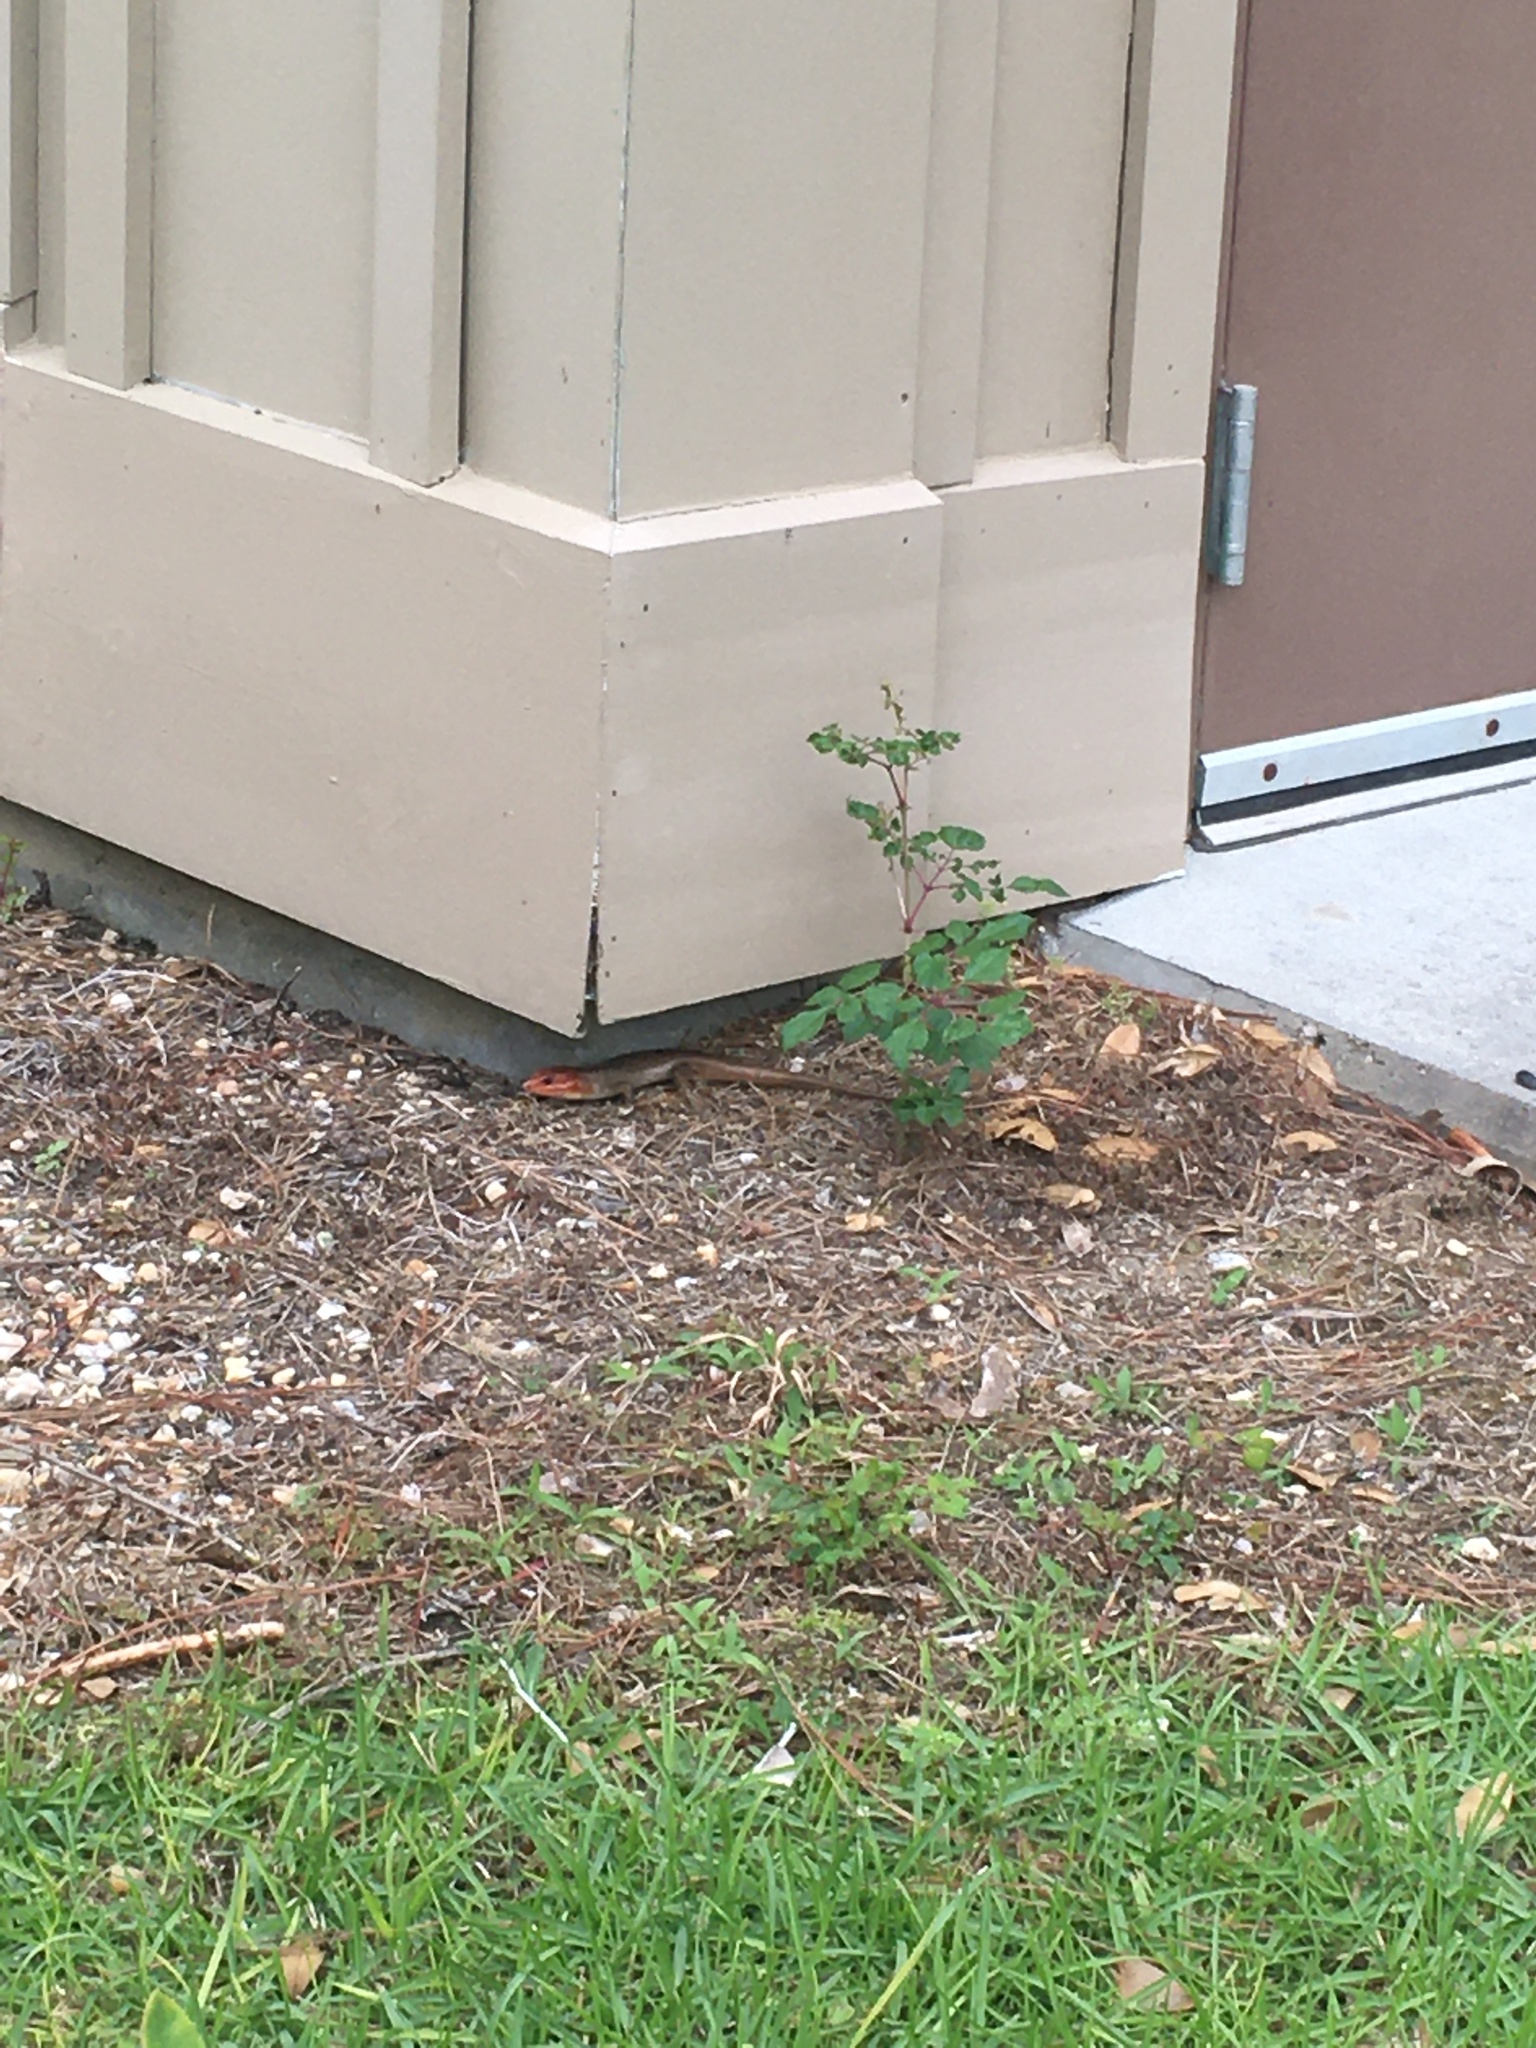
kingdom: Animalia
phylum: Chordata
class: Squamata
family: Scincidae
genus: Plestiodon
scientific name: Plestiodon laticeps
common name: Broadhead skink
